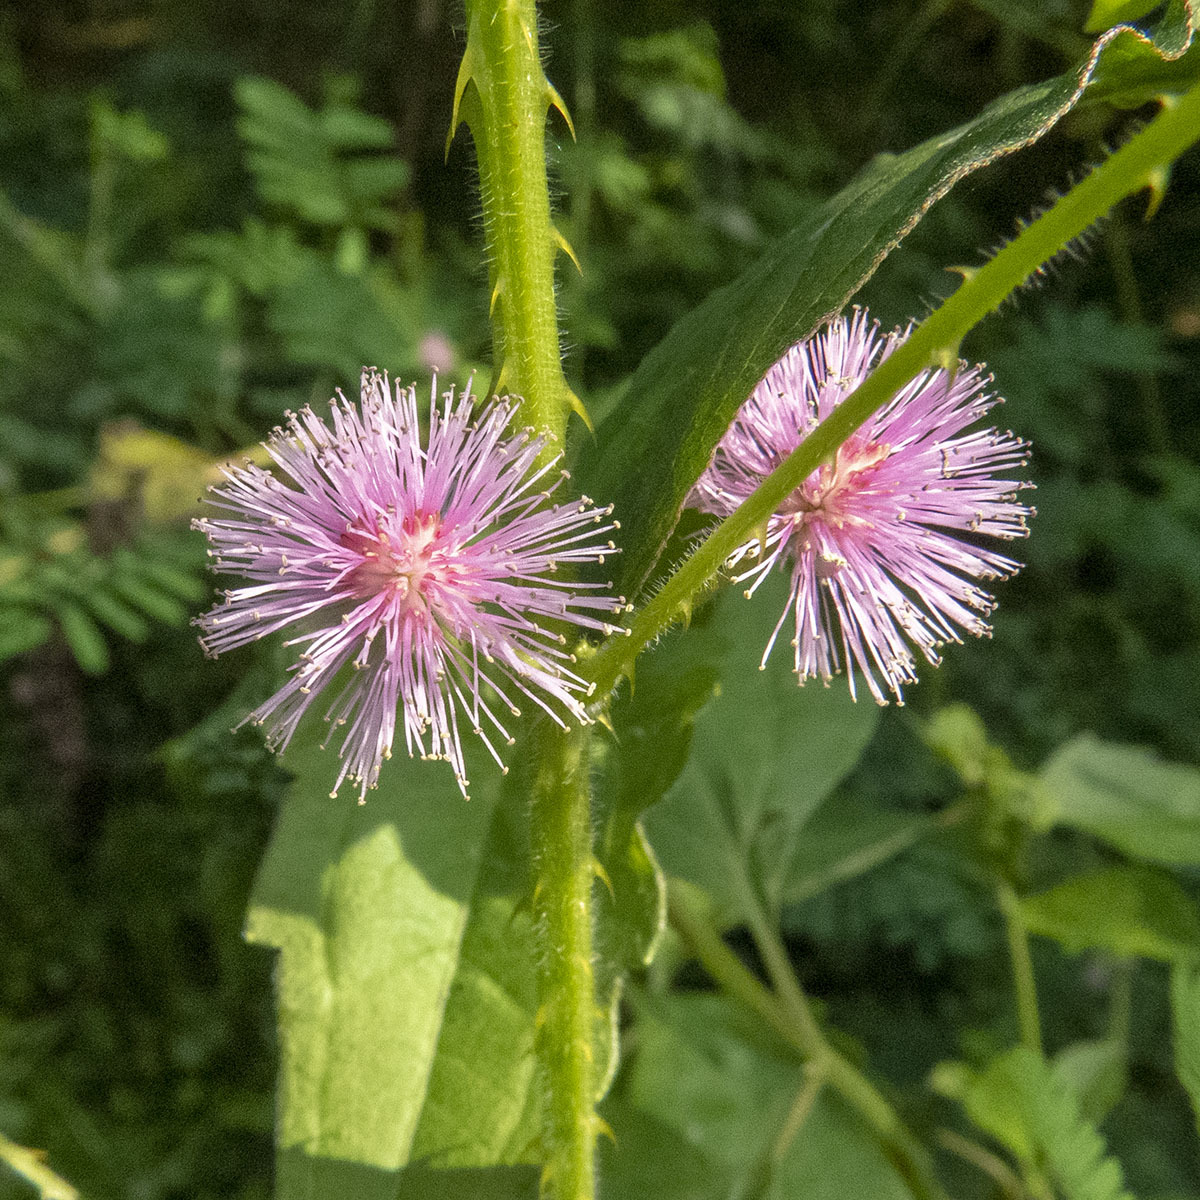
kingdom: Plantae
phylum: Tracheophyta
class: Magnoliopsida
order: Fabales
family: Fabaceae
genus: Mimosa
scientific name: Mimosa diplotricha
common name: Giant sensitive-plant
